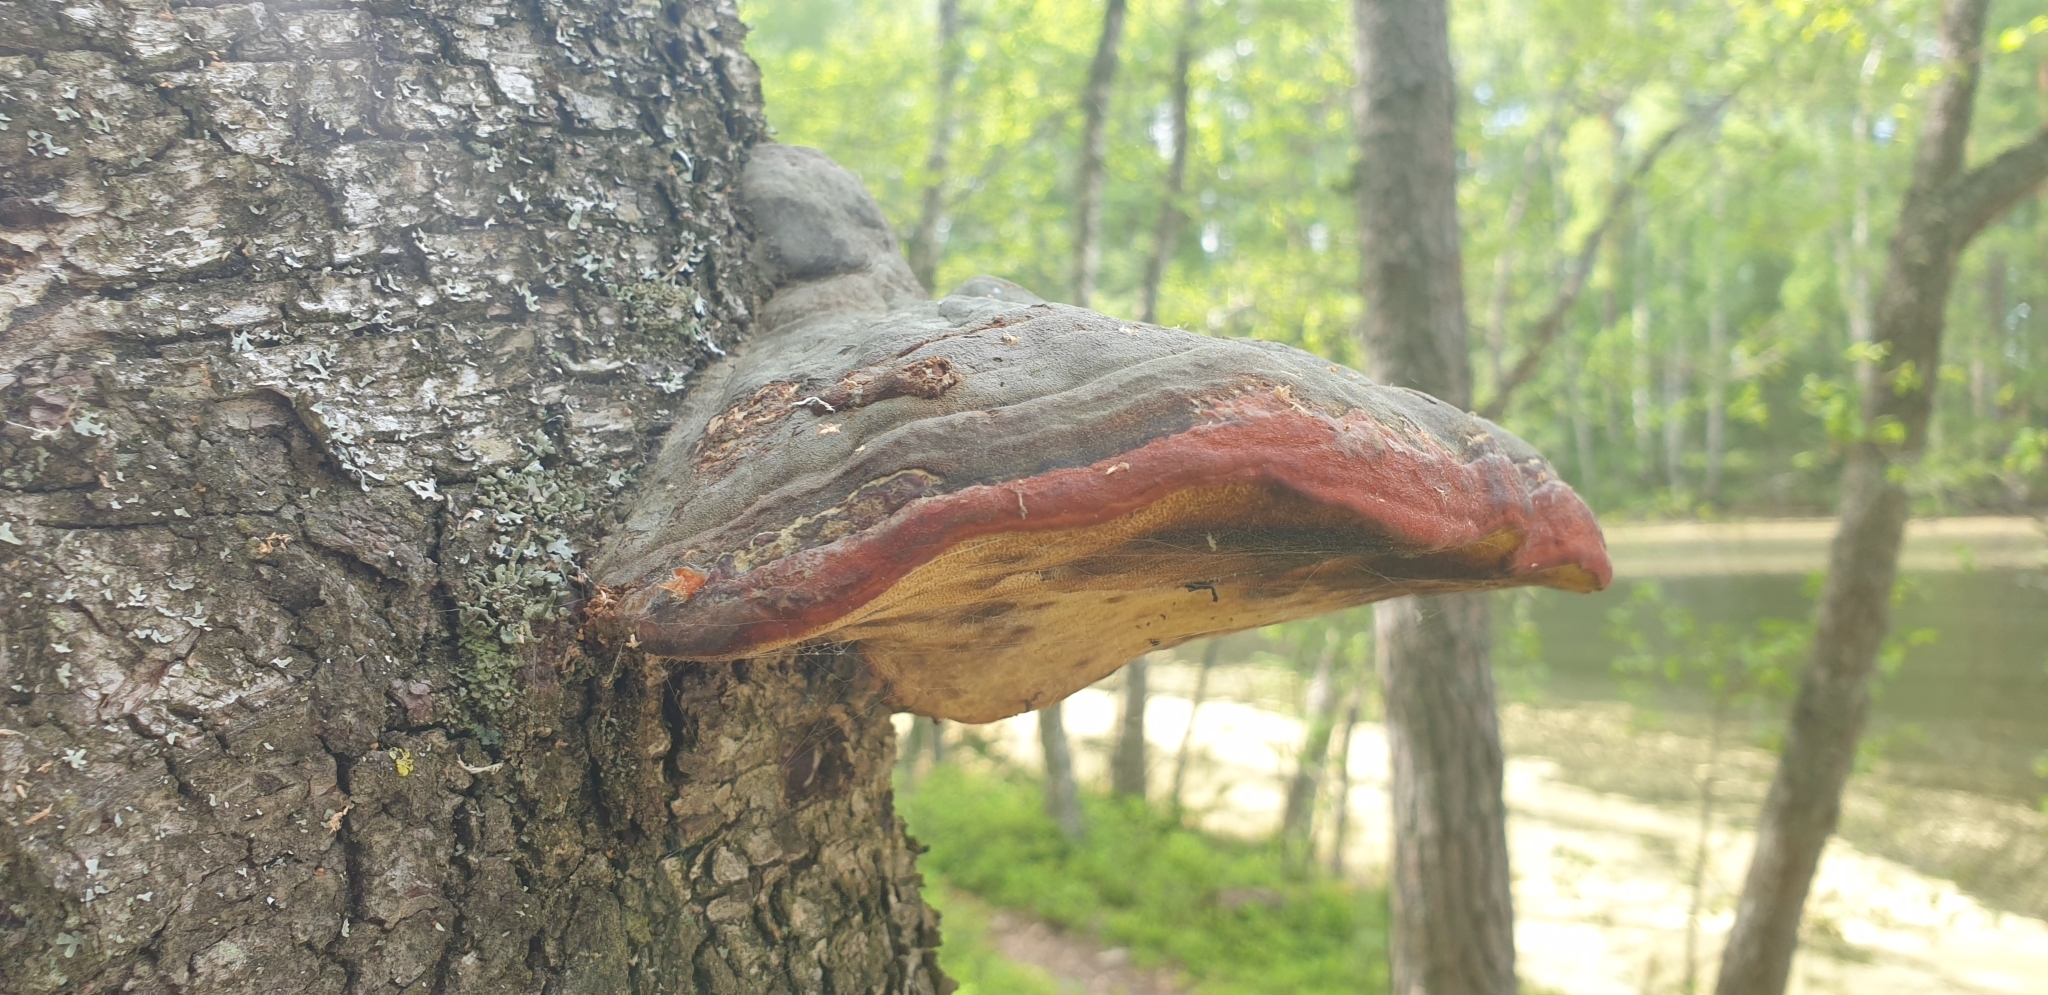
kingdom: Fungi
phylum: Basidiomycota
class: Agaricomycetes
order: Polyporales
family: Fomitopsidaceae
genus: Fomitopsis
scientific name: Fomitopsis pinicola
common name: Red-belted bracket
